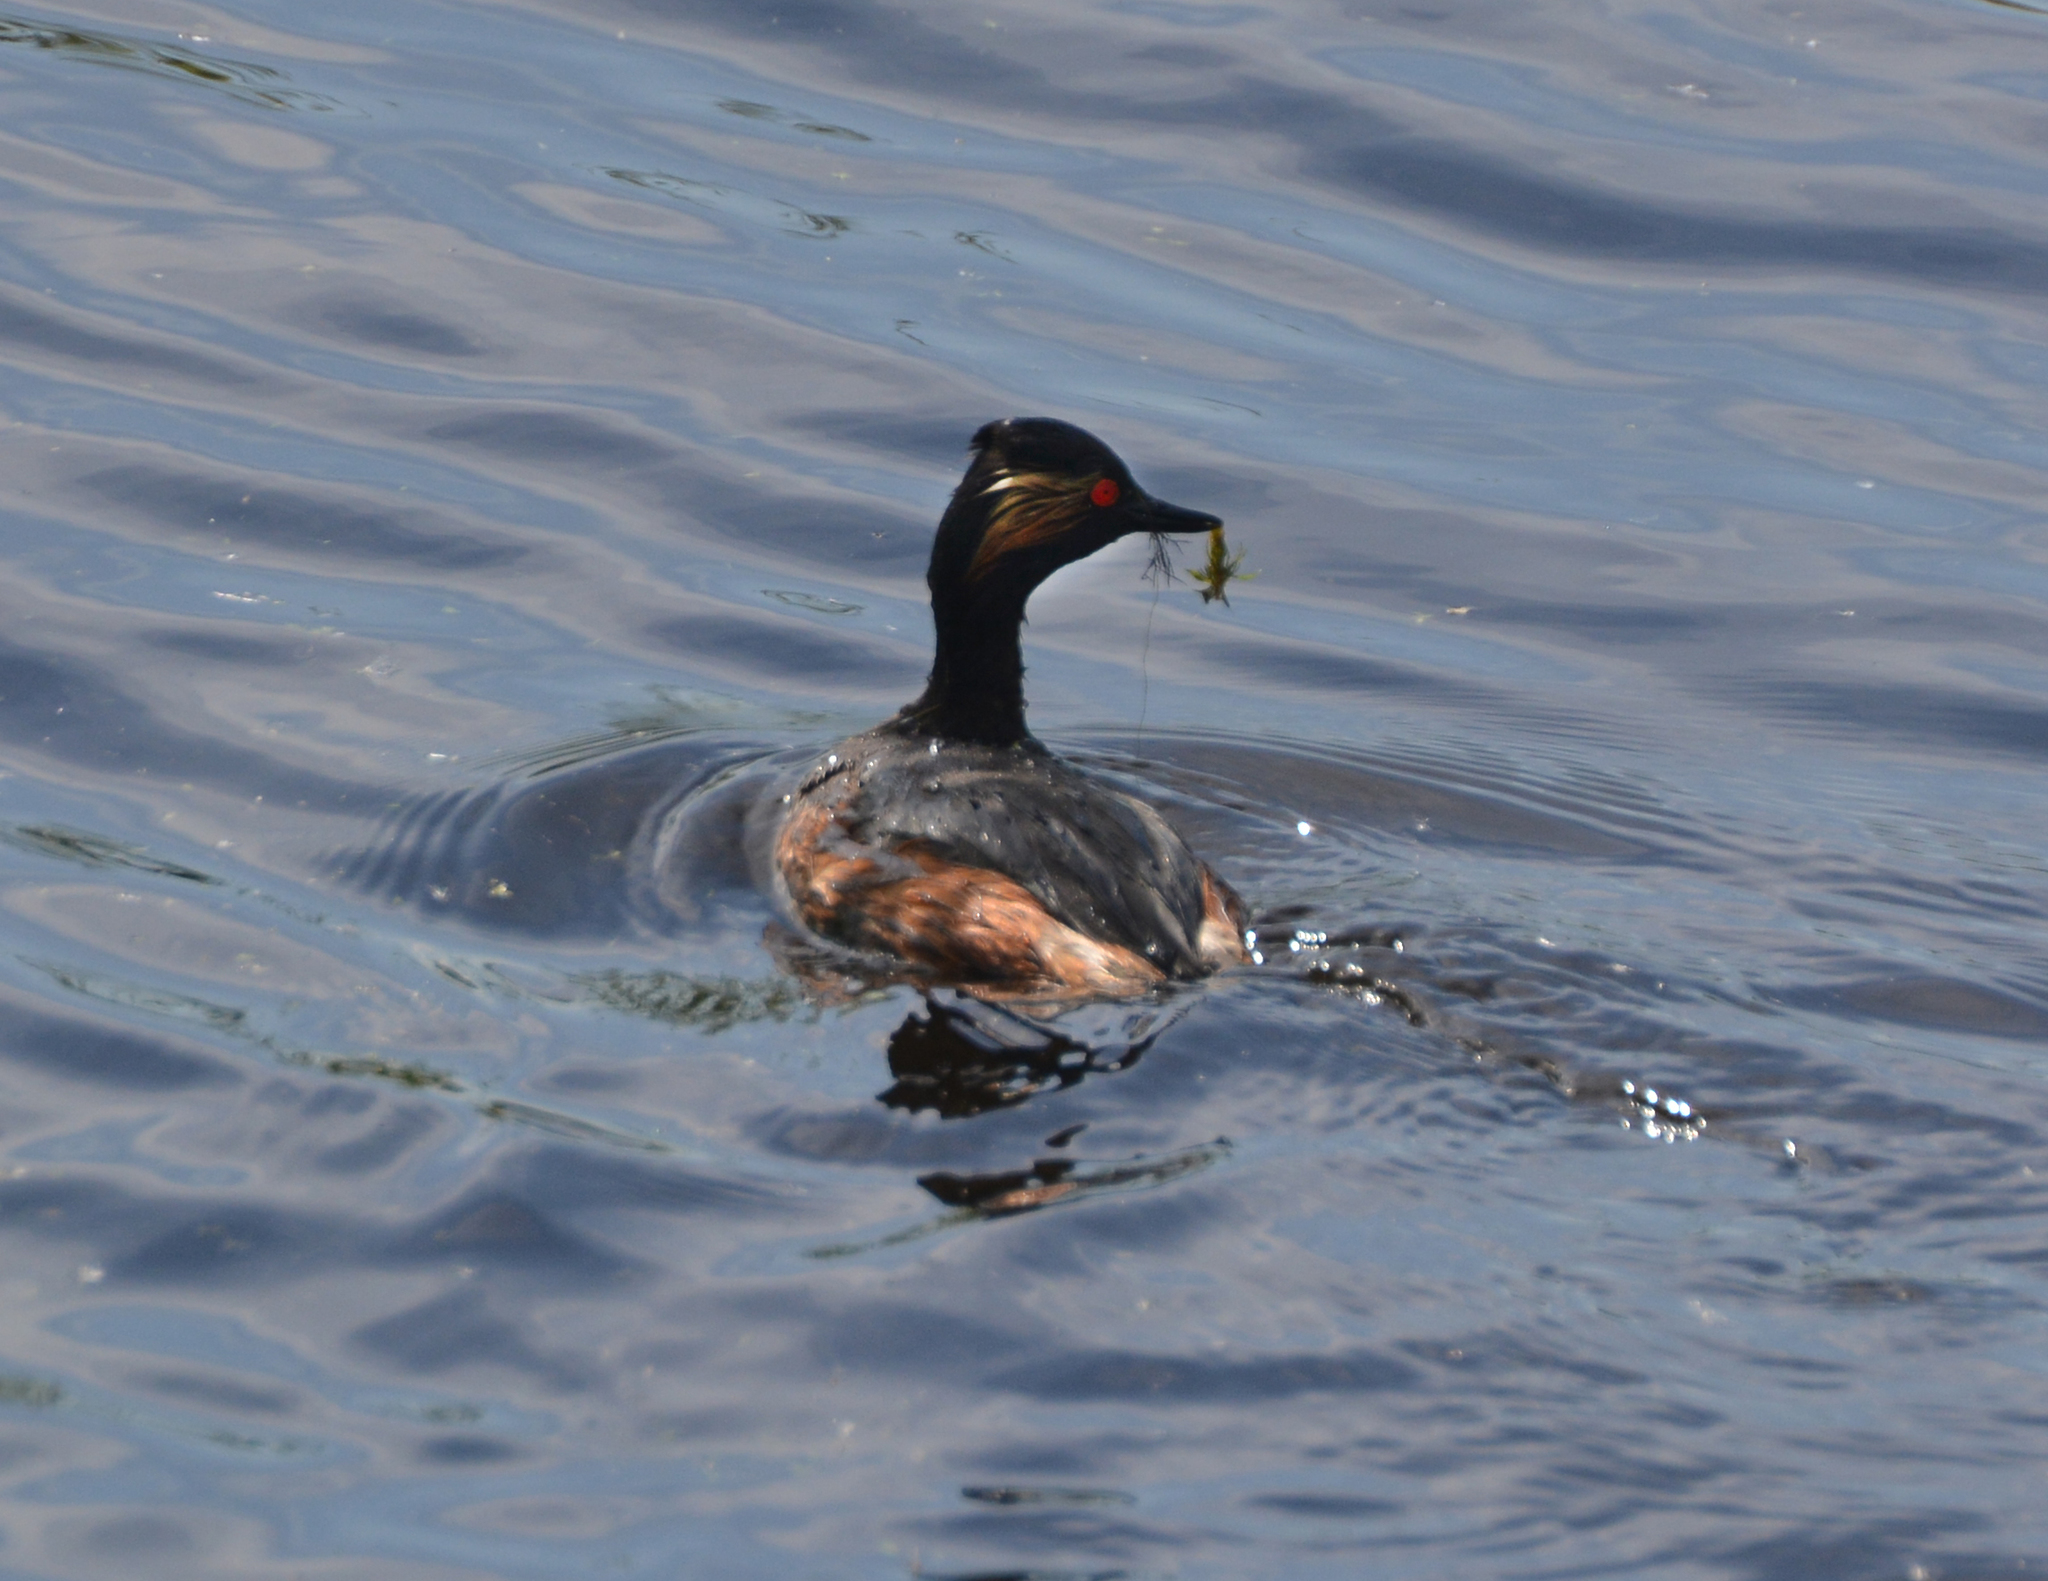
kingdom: Animalia
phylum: Chordata
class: Aves
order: Podicipediformes
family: Podicipedidae
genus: Podiceps
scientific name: Podiceps nigricollis
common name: Black-necked grebe
